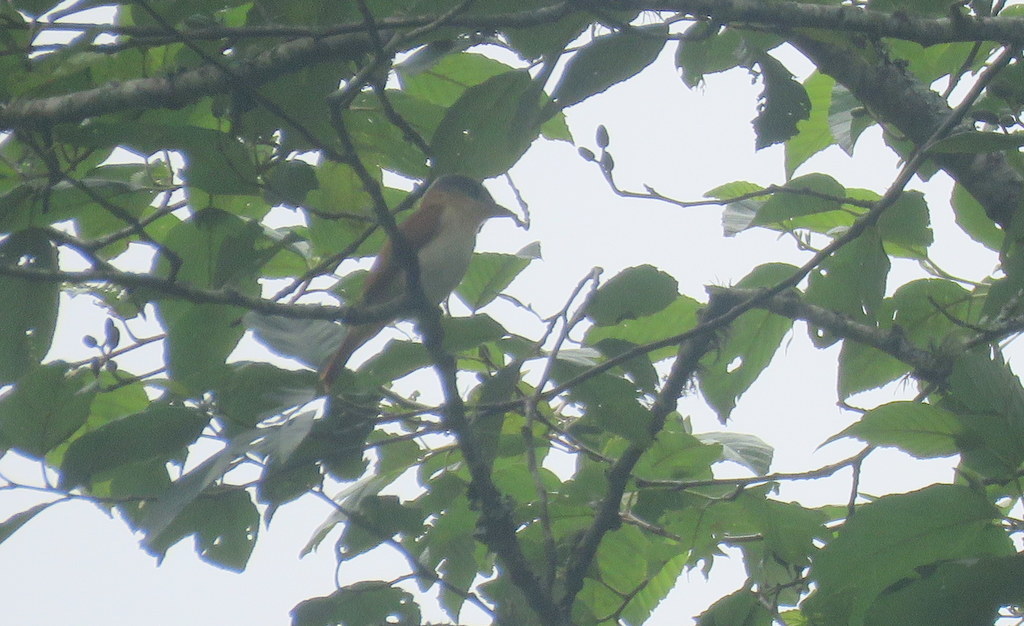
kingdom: Animalia
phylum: Chordata
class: Aves
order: Passeriformes
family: Cotingidae
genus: Pachyramphus
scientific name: Pachyramphus validus
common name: Crested becard
